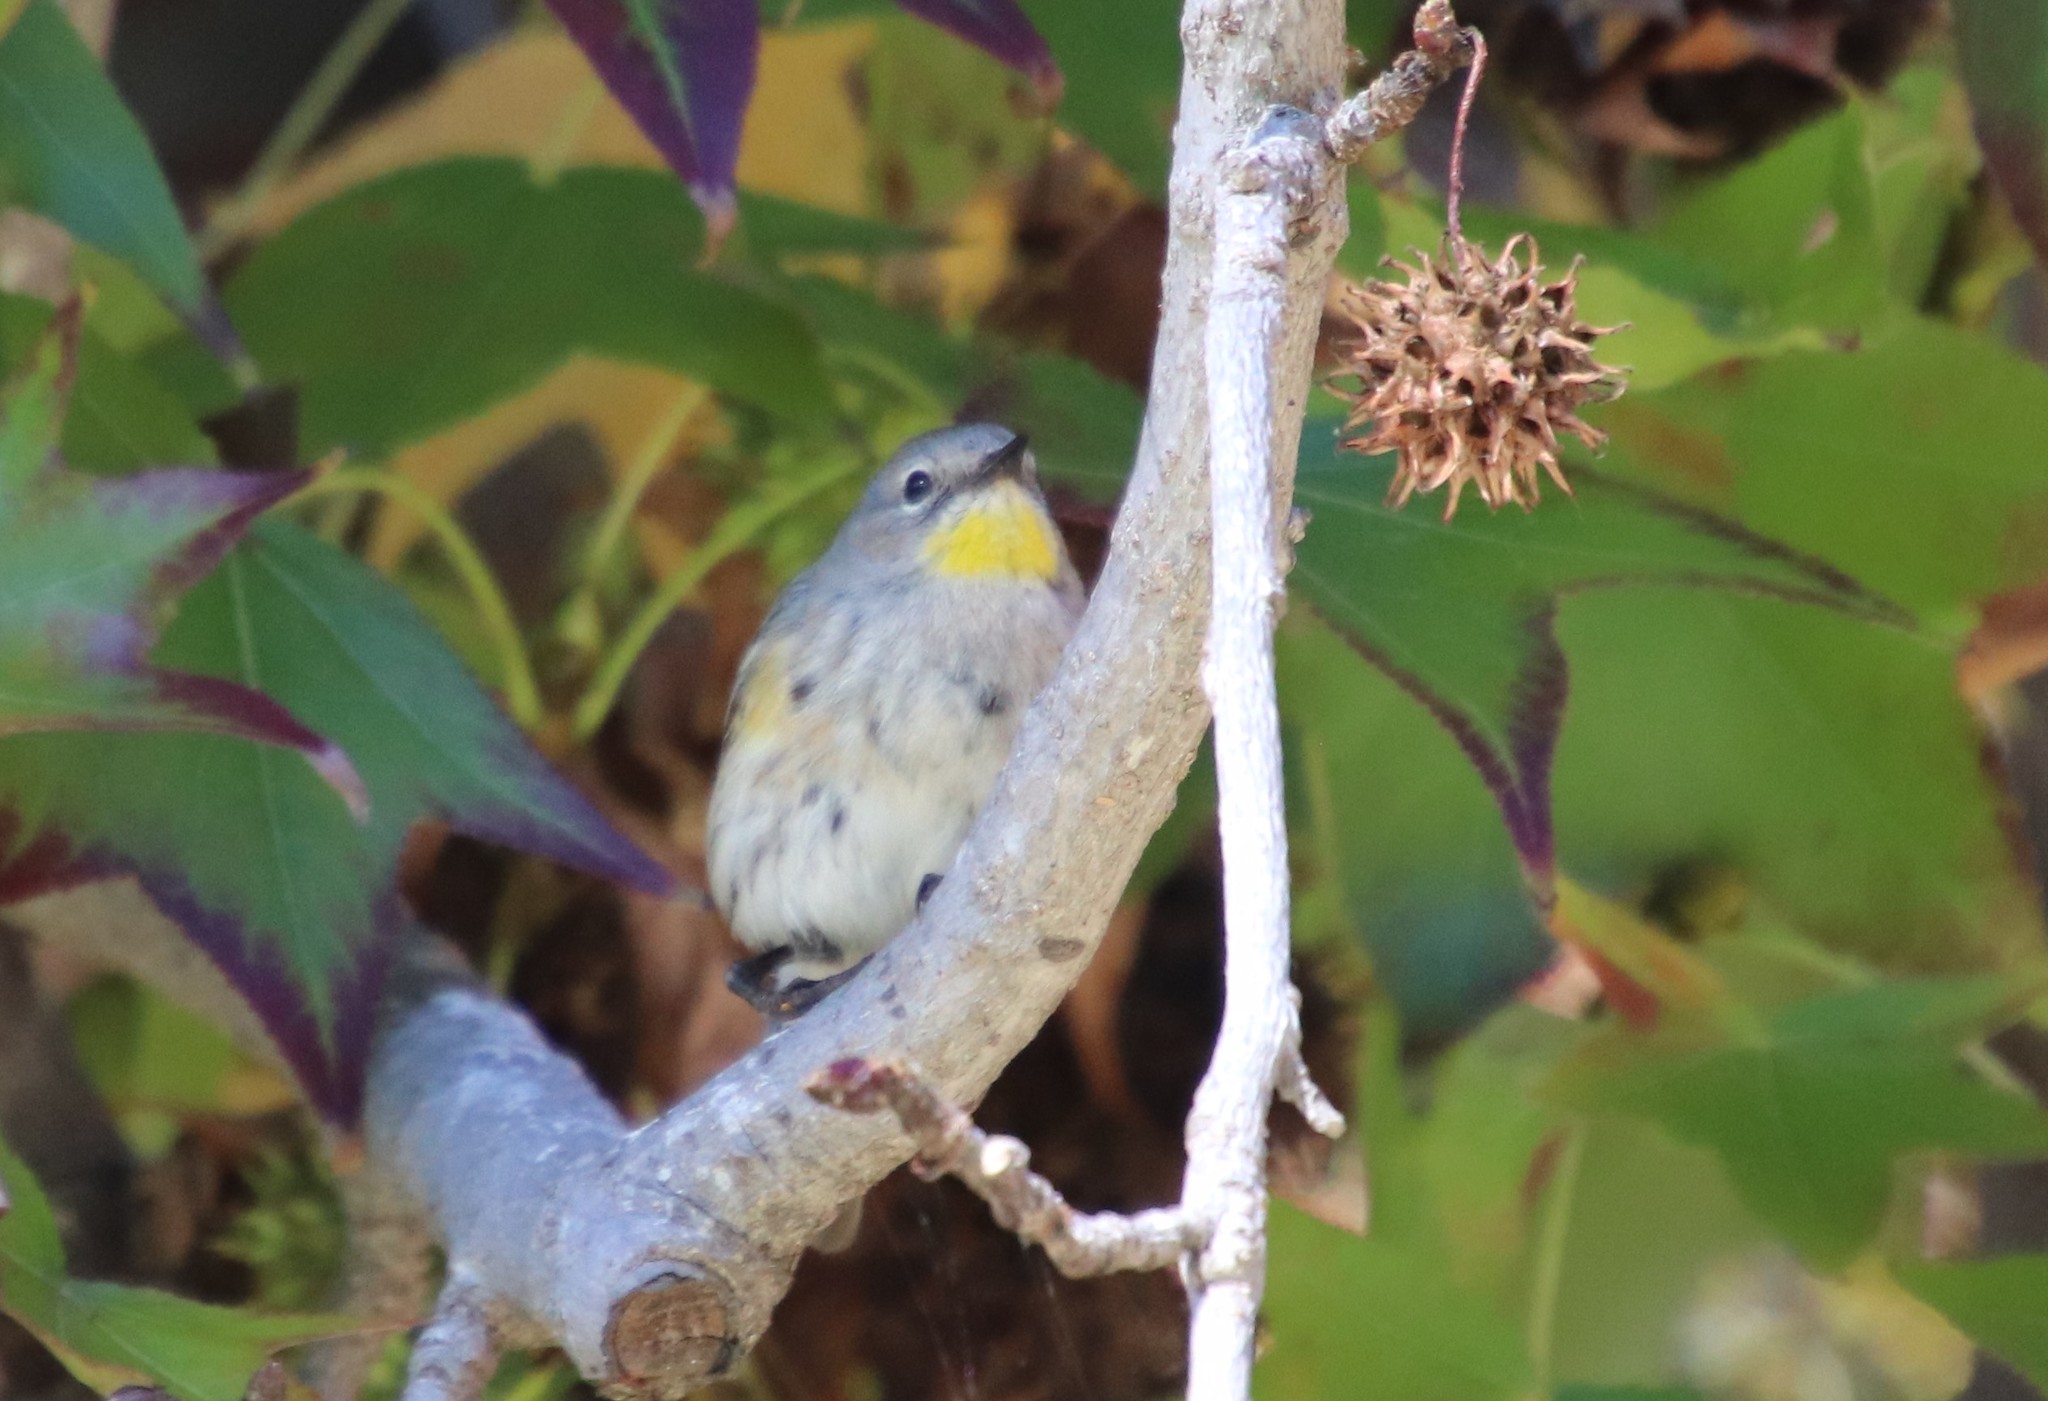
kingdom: Animalia
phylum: Chordata
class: Aves
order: Passeriformes
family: Parulidae
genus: Setophaga
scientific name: Setophaga auduboni
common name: Audubon's warbler
